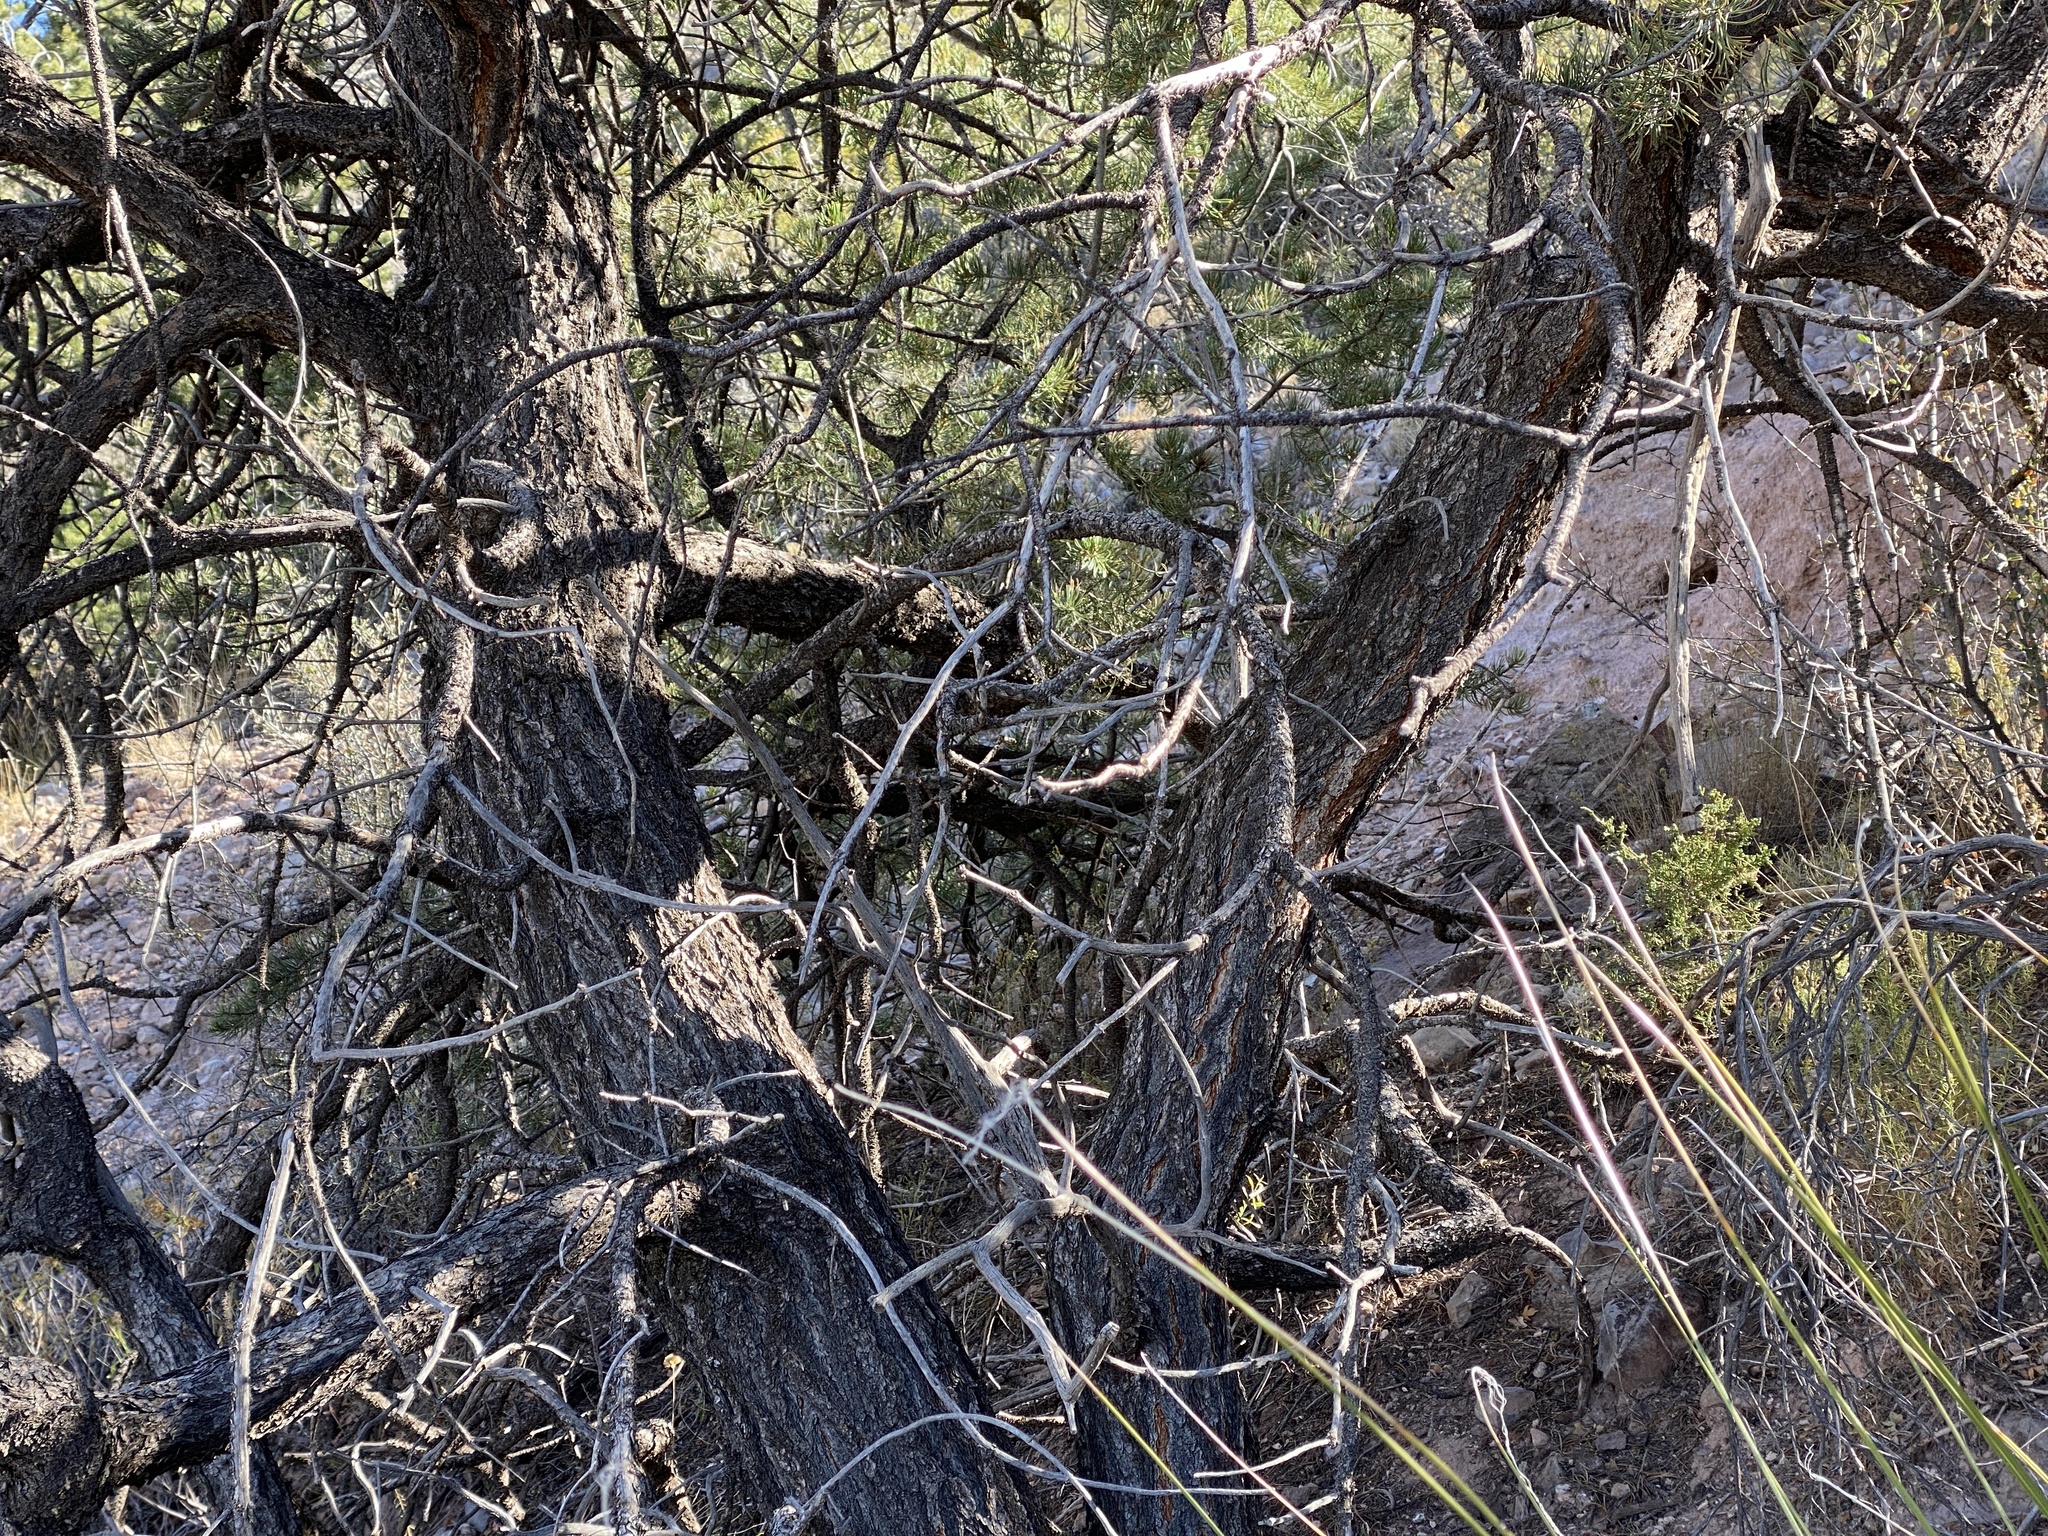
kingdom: Plantae
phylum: Tracheophyta
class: Pinopsida
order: Pinales
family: Pinaceae
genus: Pinus
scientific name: Pinus edulis
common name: Colorado pinyon
